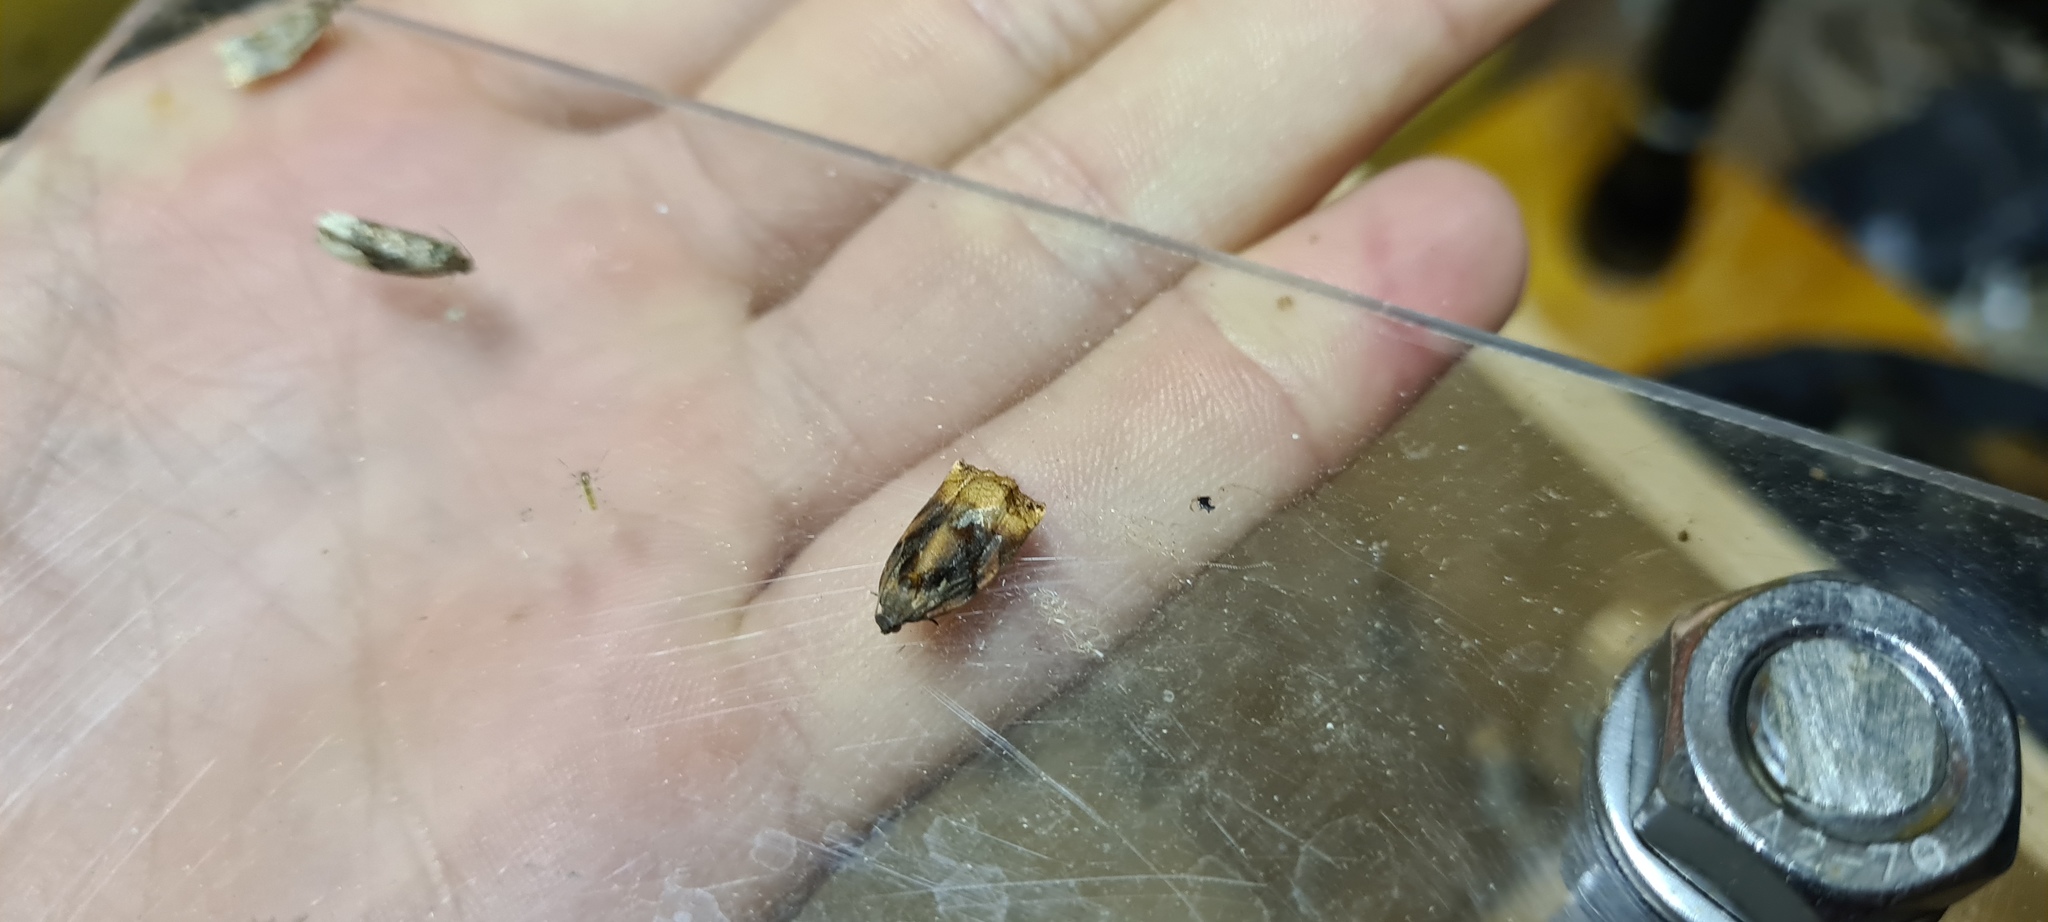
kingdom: Animalia
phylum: Arthropoda
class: Insecta
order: Lepidoptera
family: Tortricidae
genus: Archips
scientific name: Archips podana
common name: Large fruit-tree tortrix
